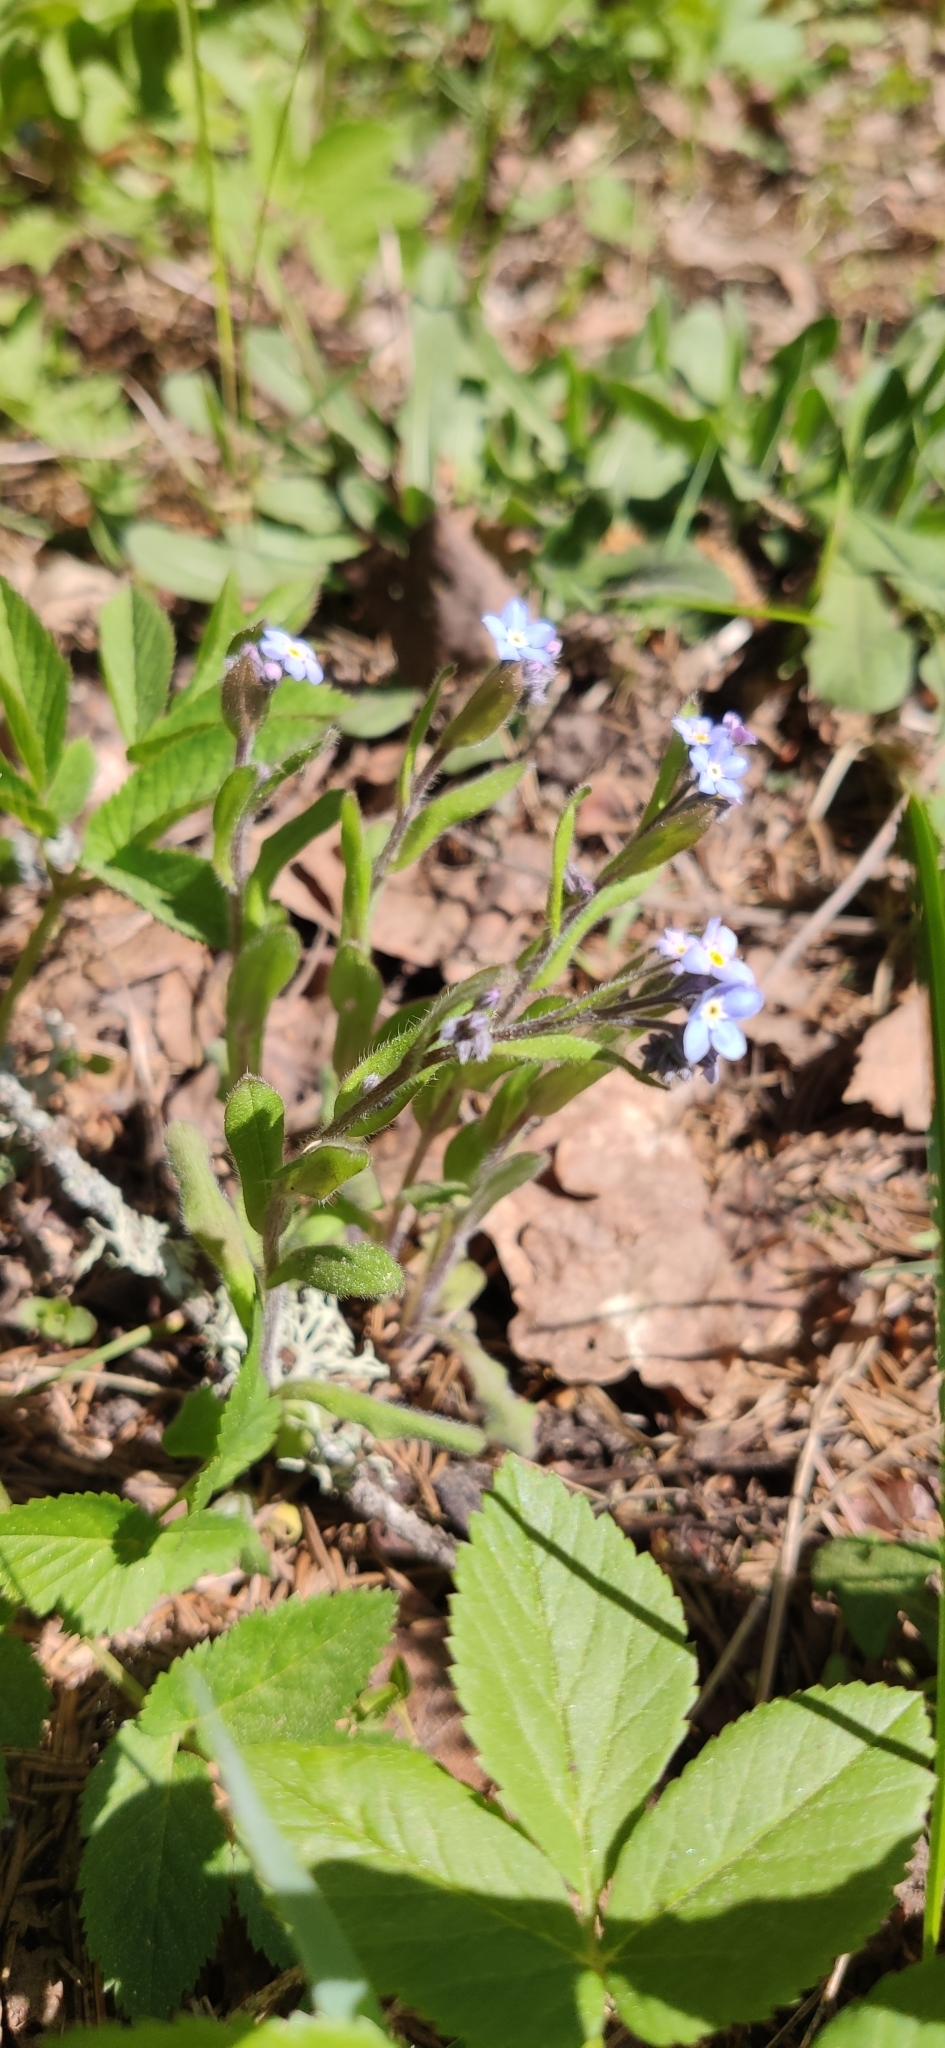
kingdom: Plantae
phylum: Tracheophyta
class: Magnoliopsida
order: Boraginales
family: Boraginaceae
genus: Myosotis
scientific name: Myosotis sylvatica
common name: Wood forget-me-not
